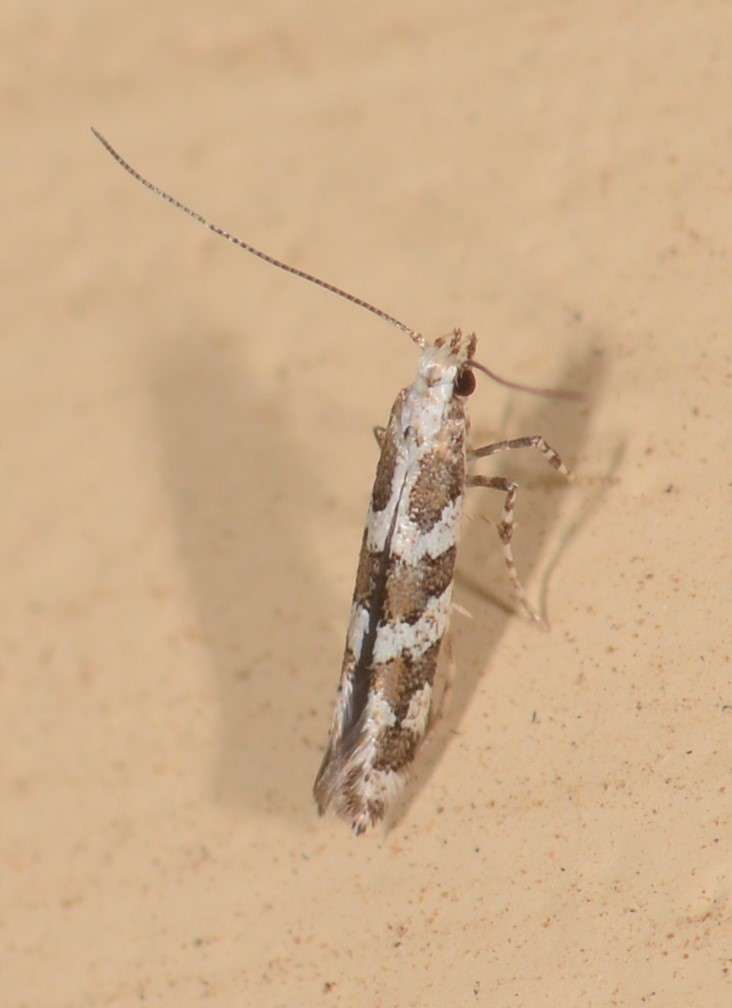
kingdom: Animalia
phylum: Arthropoda
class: Insecta
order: Lepidoptera
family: Gracillariidae
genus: Acrocercops
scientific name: Acrocercops irrorata
